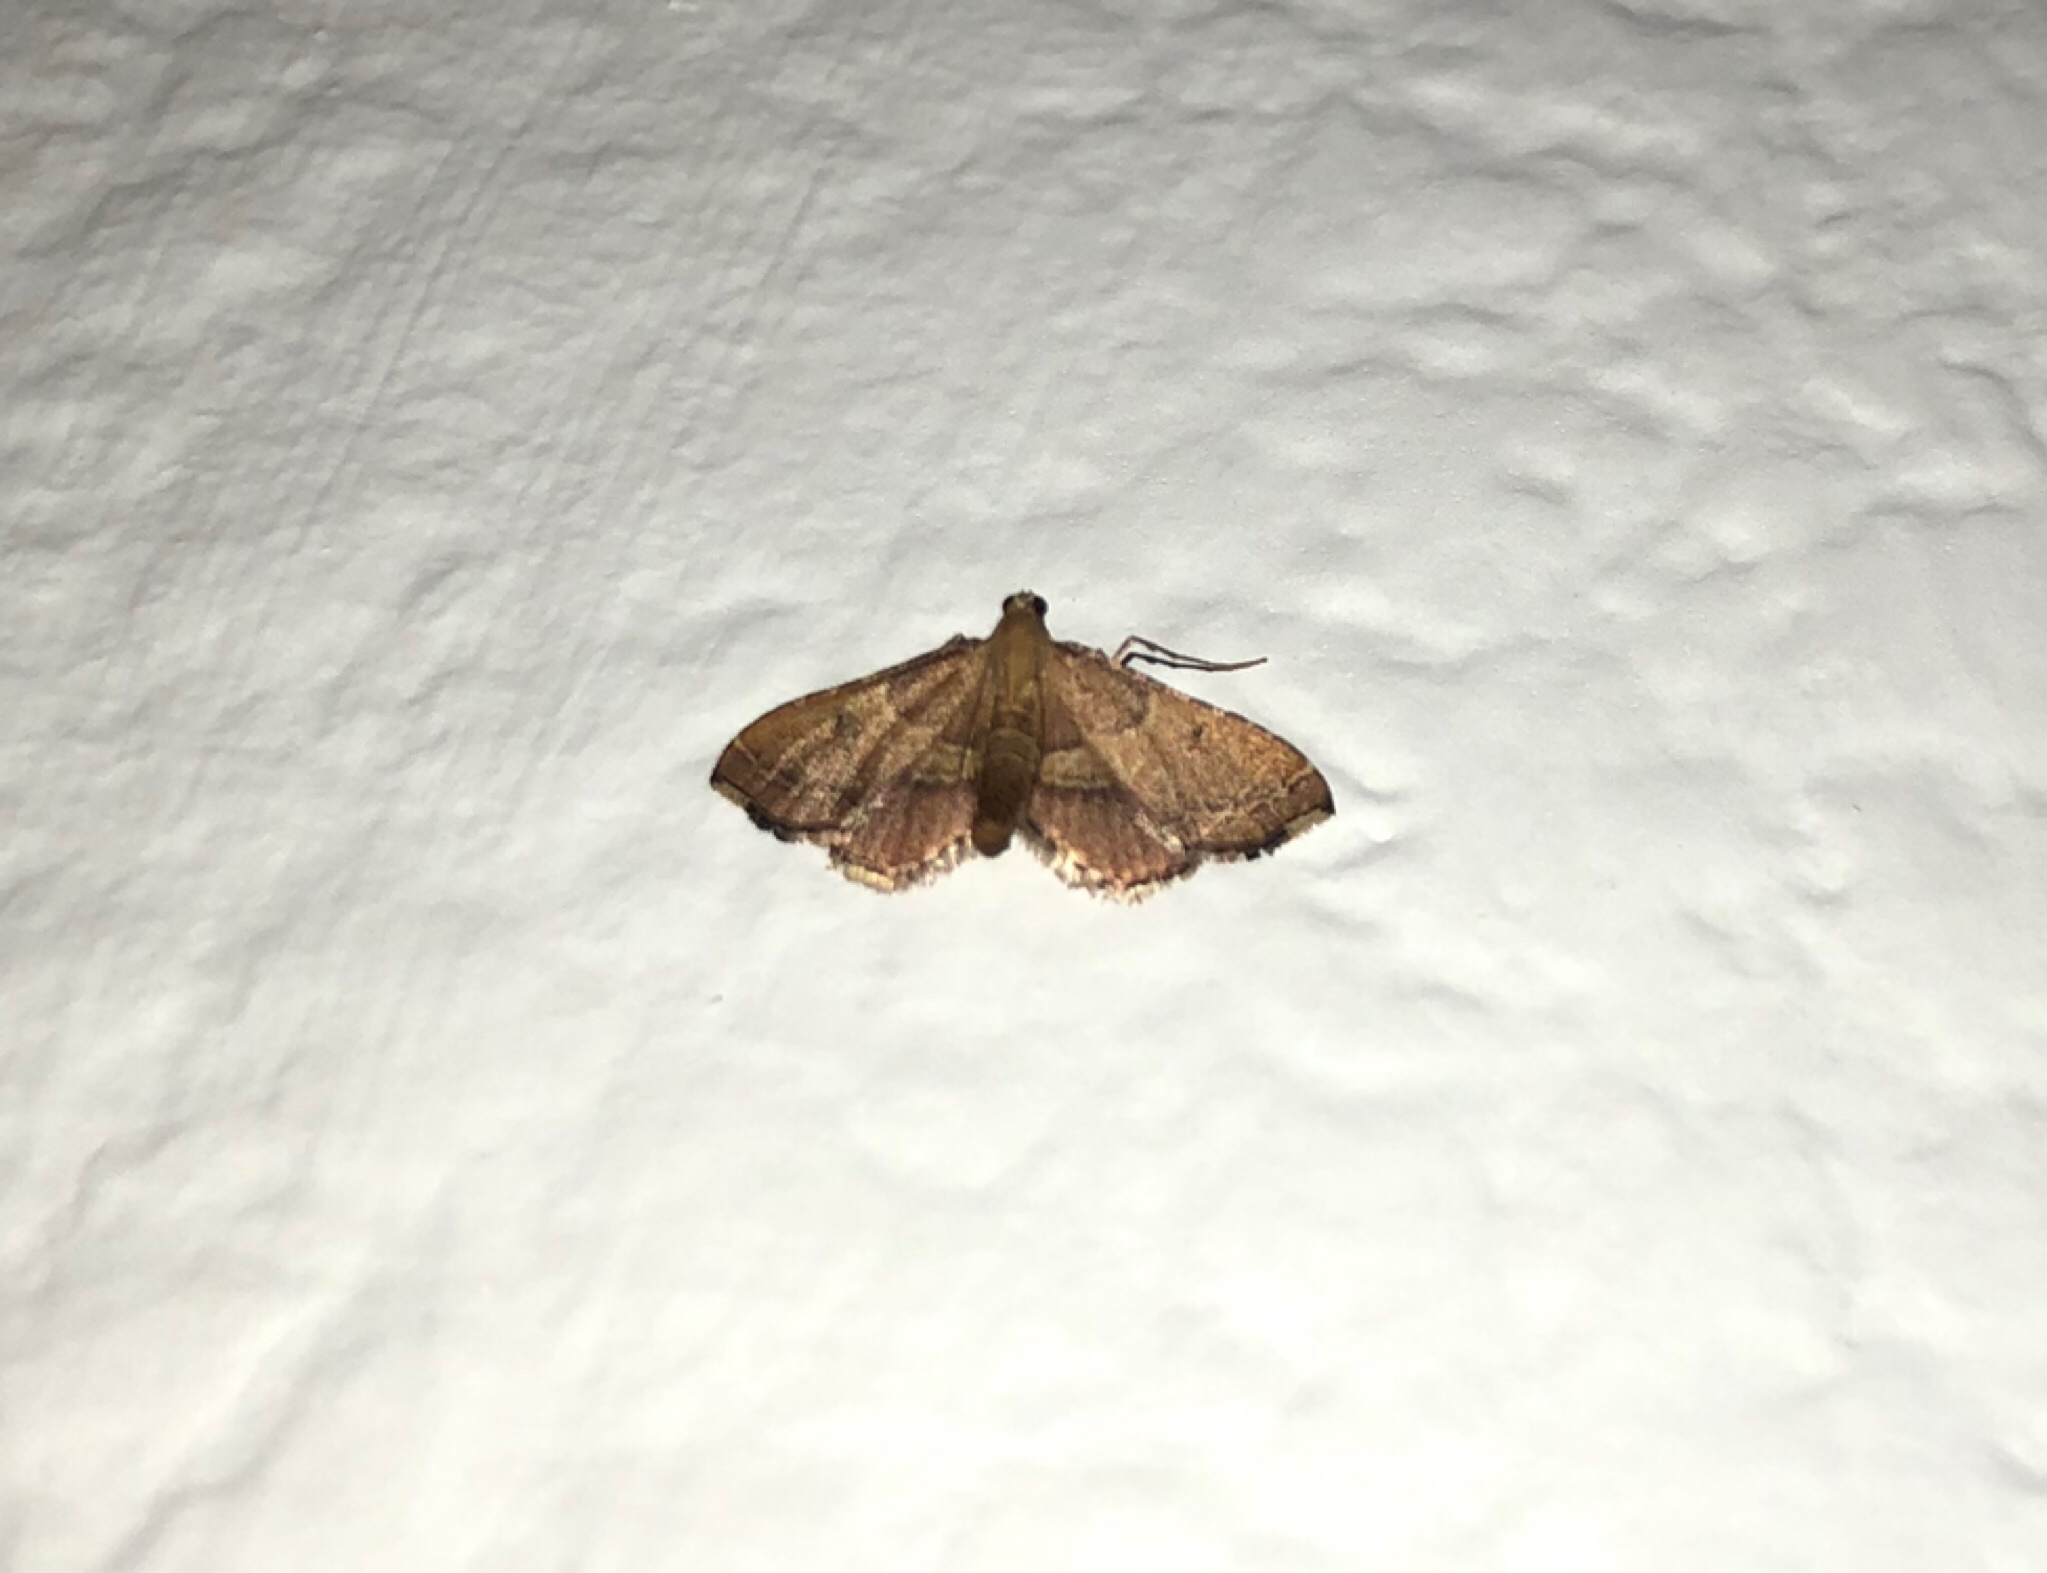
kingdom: Animalia
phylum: Arthropoda
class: Insecta
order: Lepidoptera
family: Pyralidae
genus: Endotricha
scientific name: Endotricha flammealis
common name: Rosy tabby
